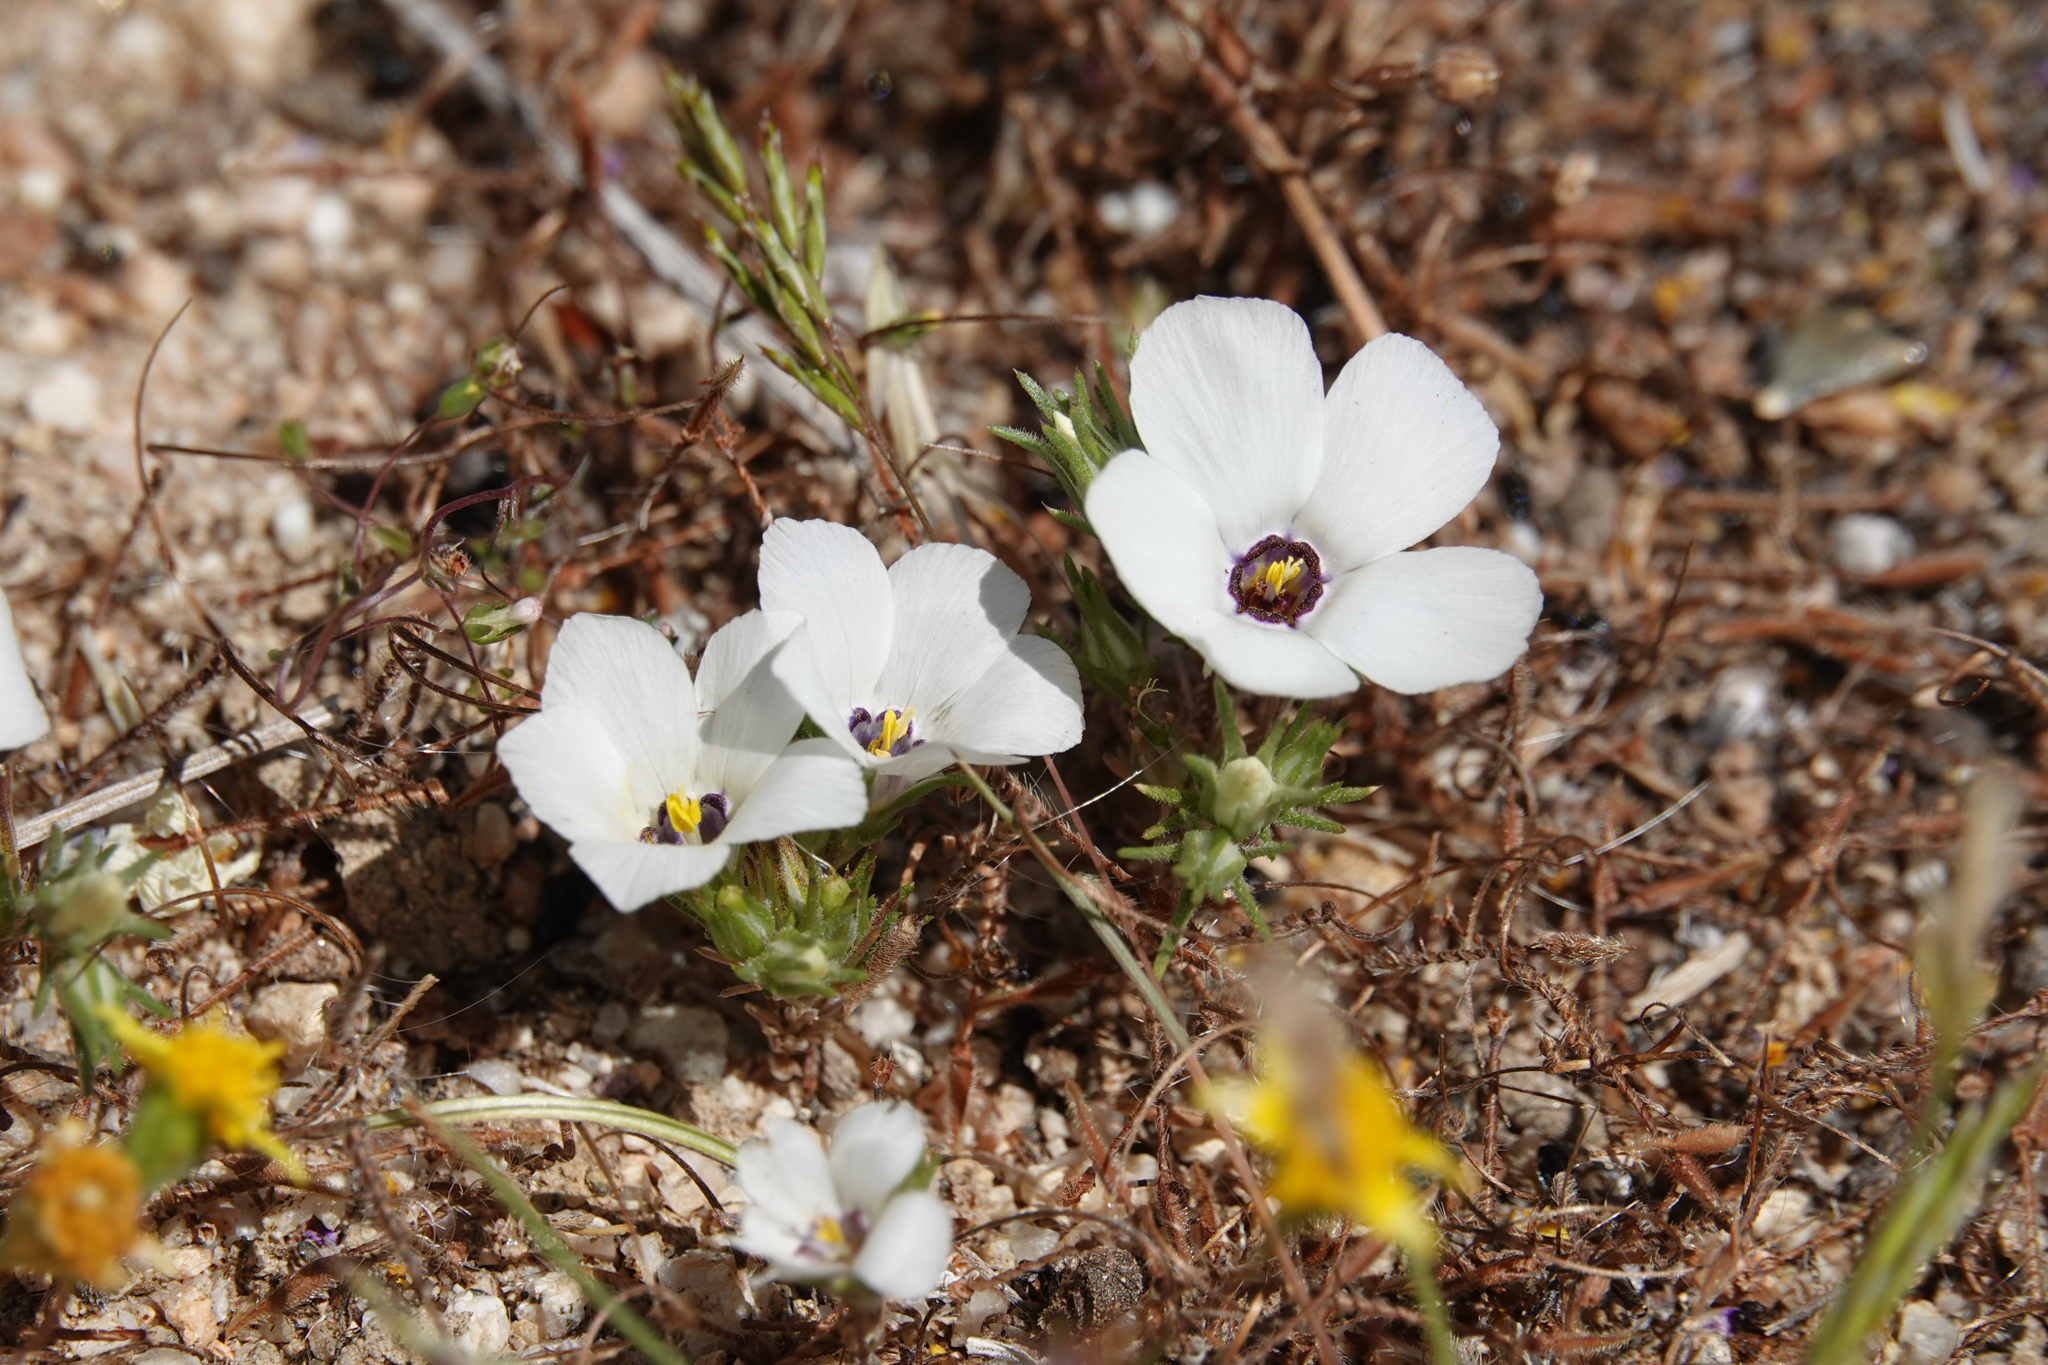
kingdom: Plantae
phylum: Tracheophyta
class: Magnoliopsida
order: Ericales
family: Polemoniaceae
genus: Linanthus
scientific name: Linanthus parryae
